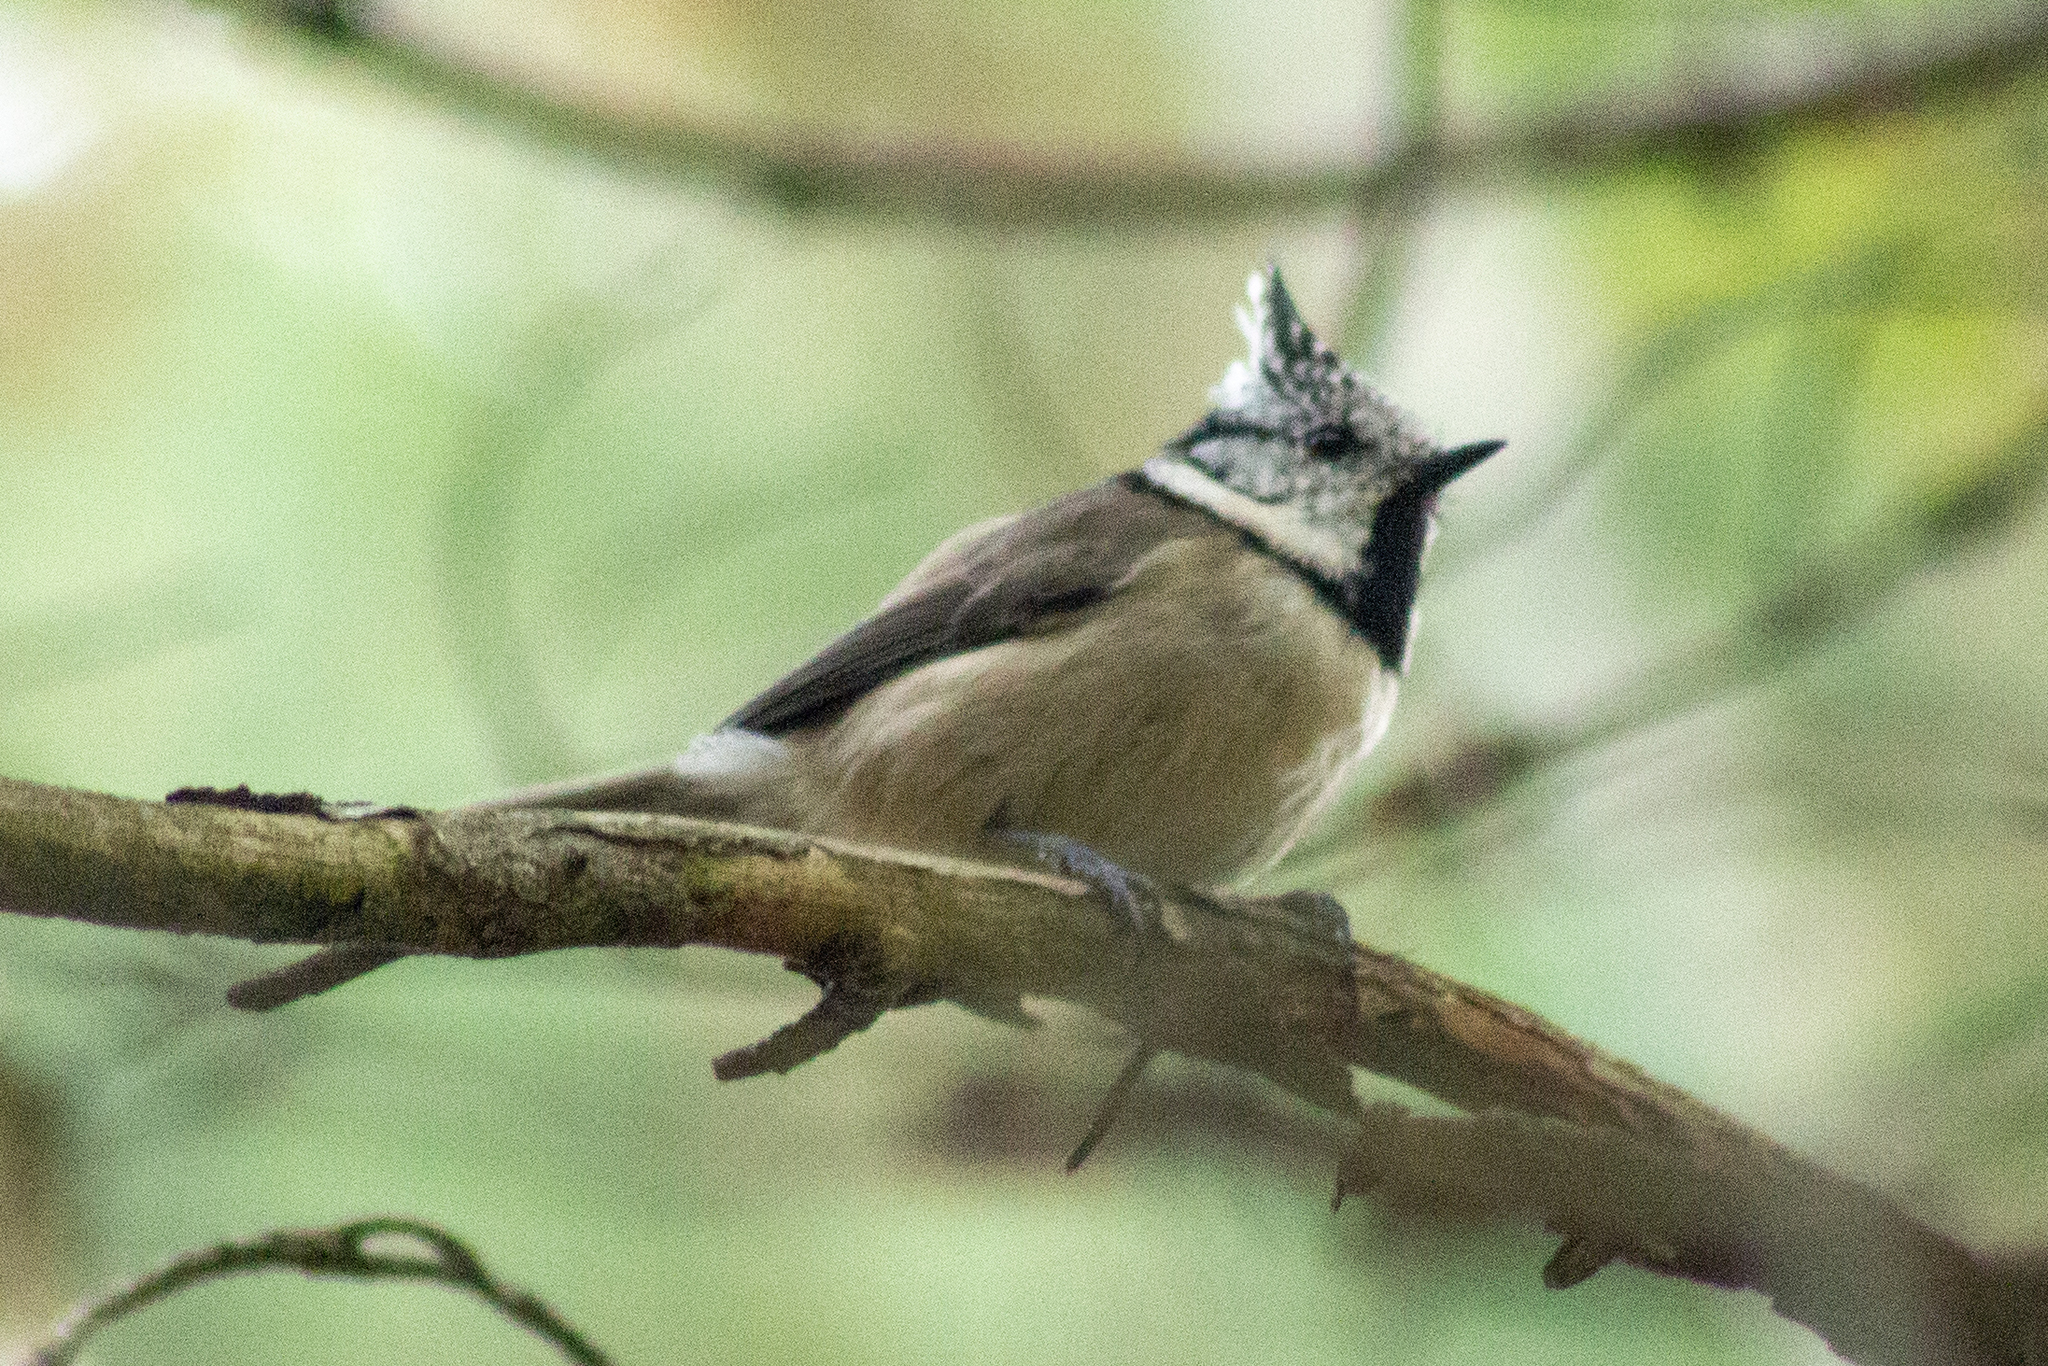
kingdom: Animalia
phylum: Chordata
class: Aves
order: Passeriformes
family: Paridae
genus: Lophophanes
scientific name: Lophophanes cristatus
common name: European crested tit
